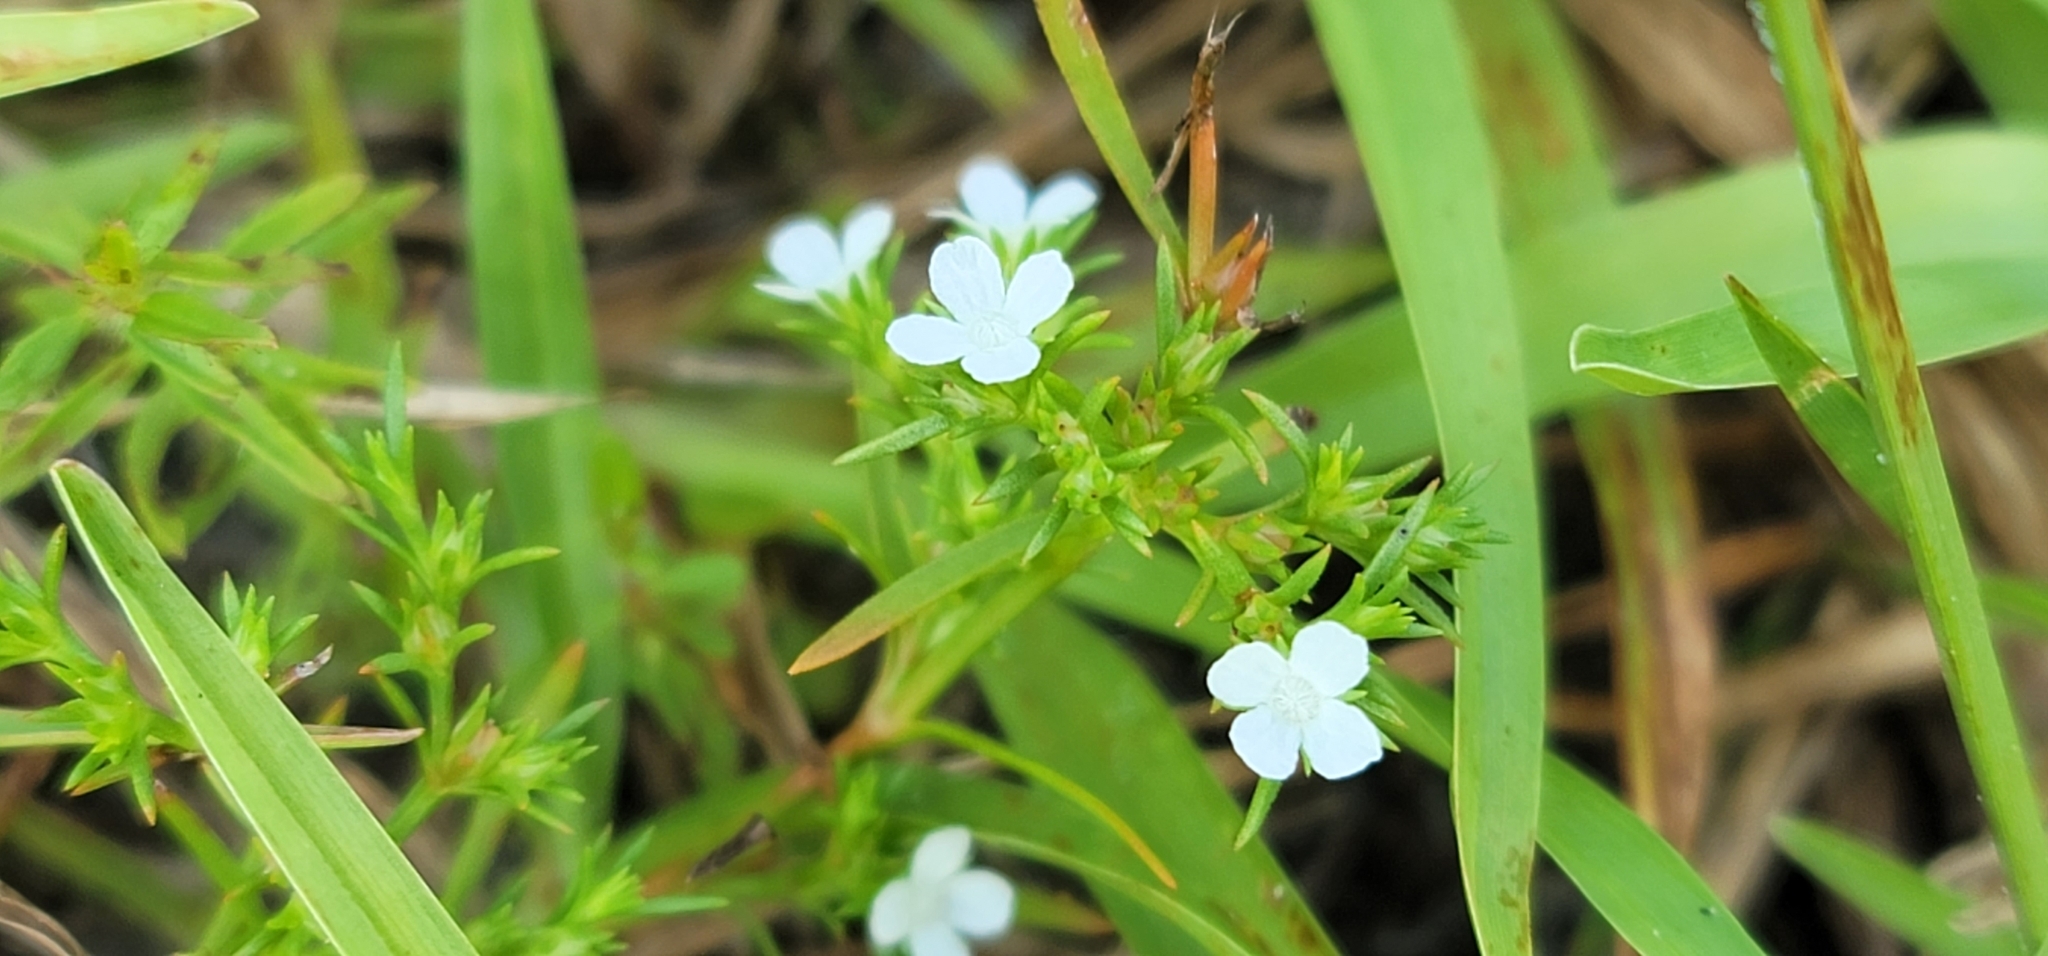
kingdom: Plantae
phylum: Tracheophyta
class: Magnoliopsida
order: Lamiales
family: Tetrachondraceae
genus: Polypremum
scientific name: Polypremum procumbens
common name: Juniper-leaf
